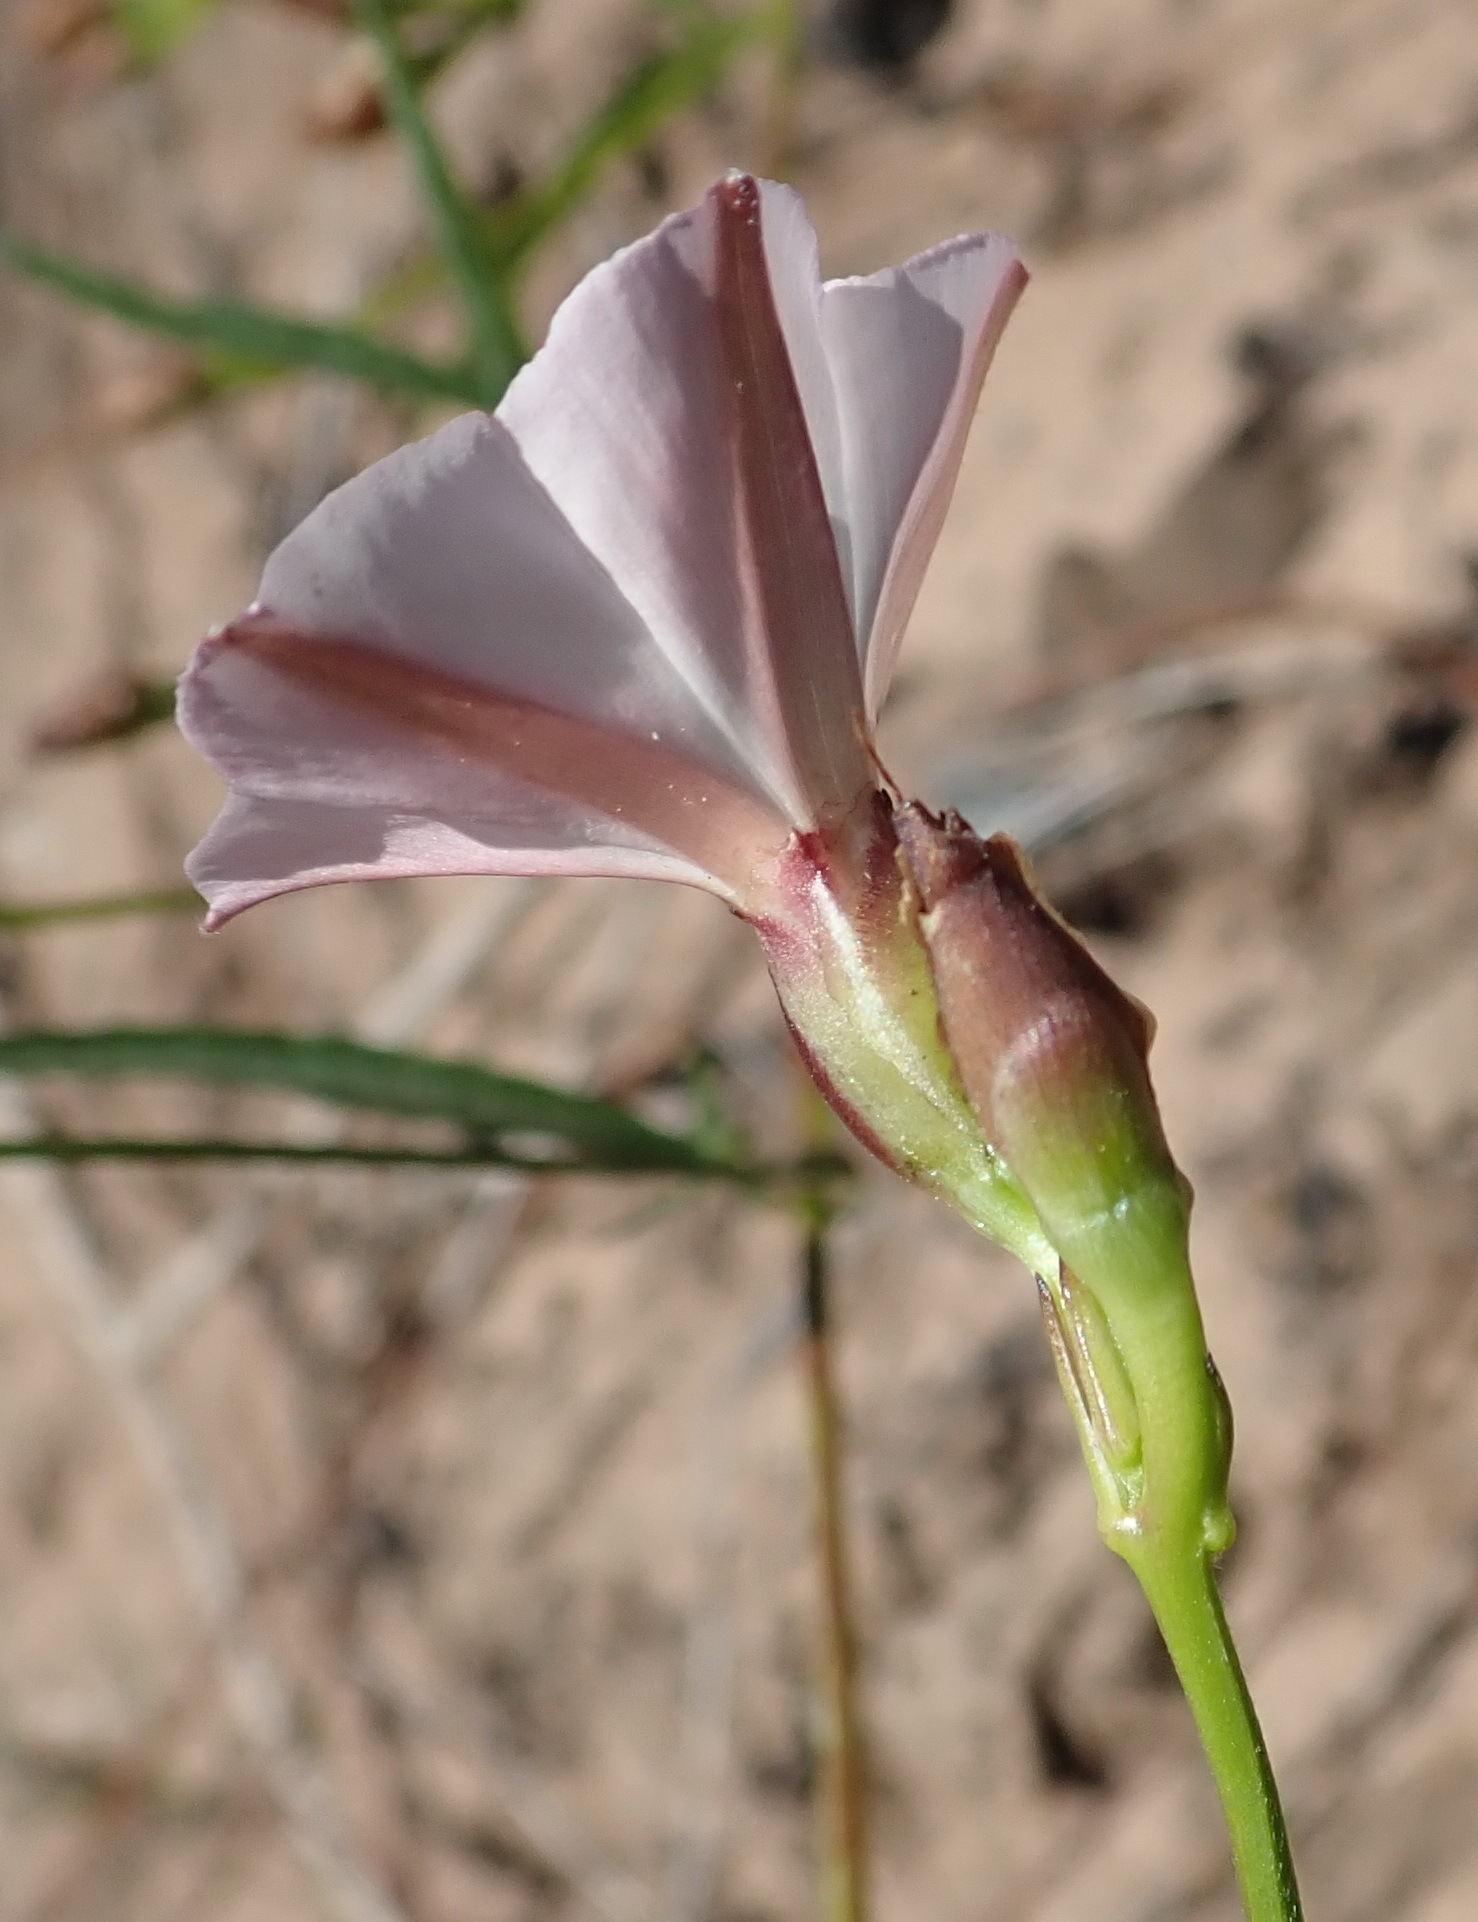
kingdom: Plantae
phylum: Tracheophyta
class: Magnoliopsida
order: Solanales
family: Convolvulaceae
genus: Convolvulus
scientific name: Convolvulus sagittatus
